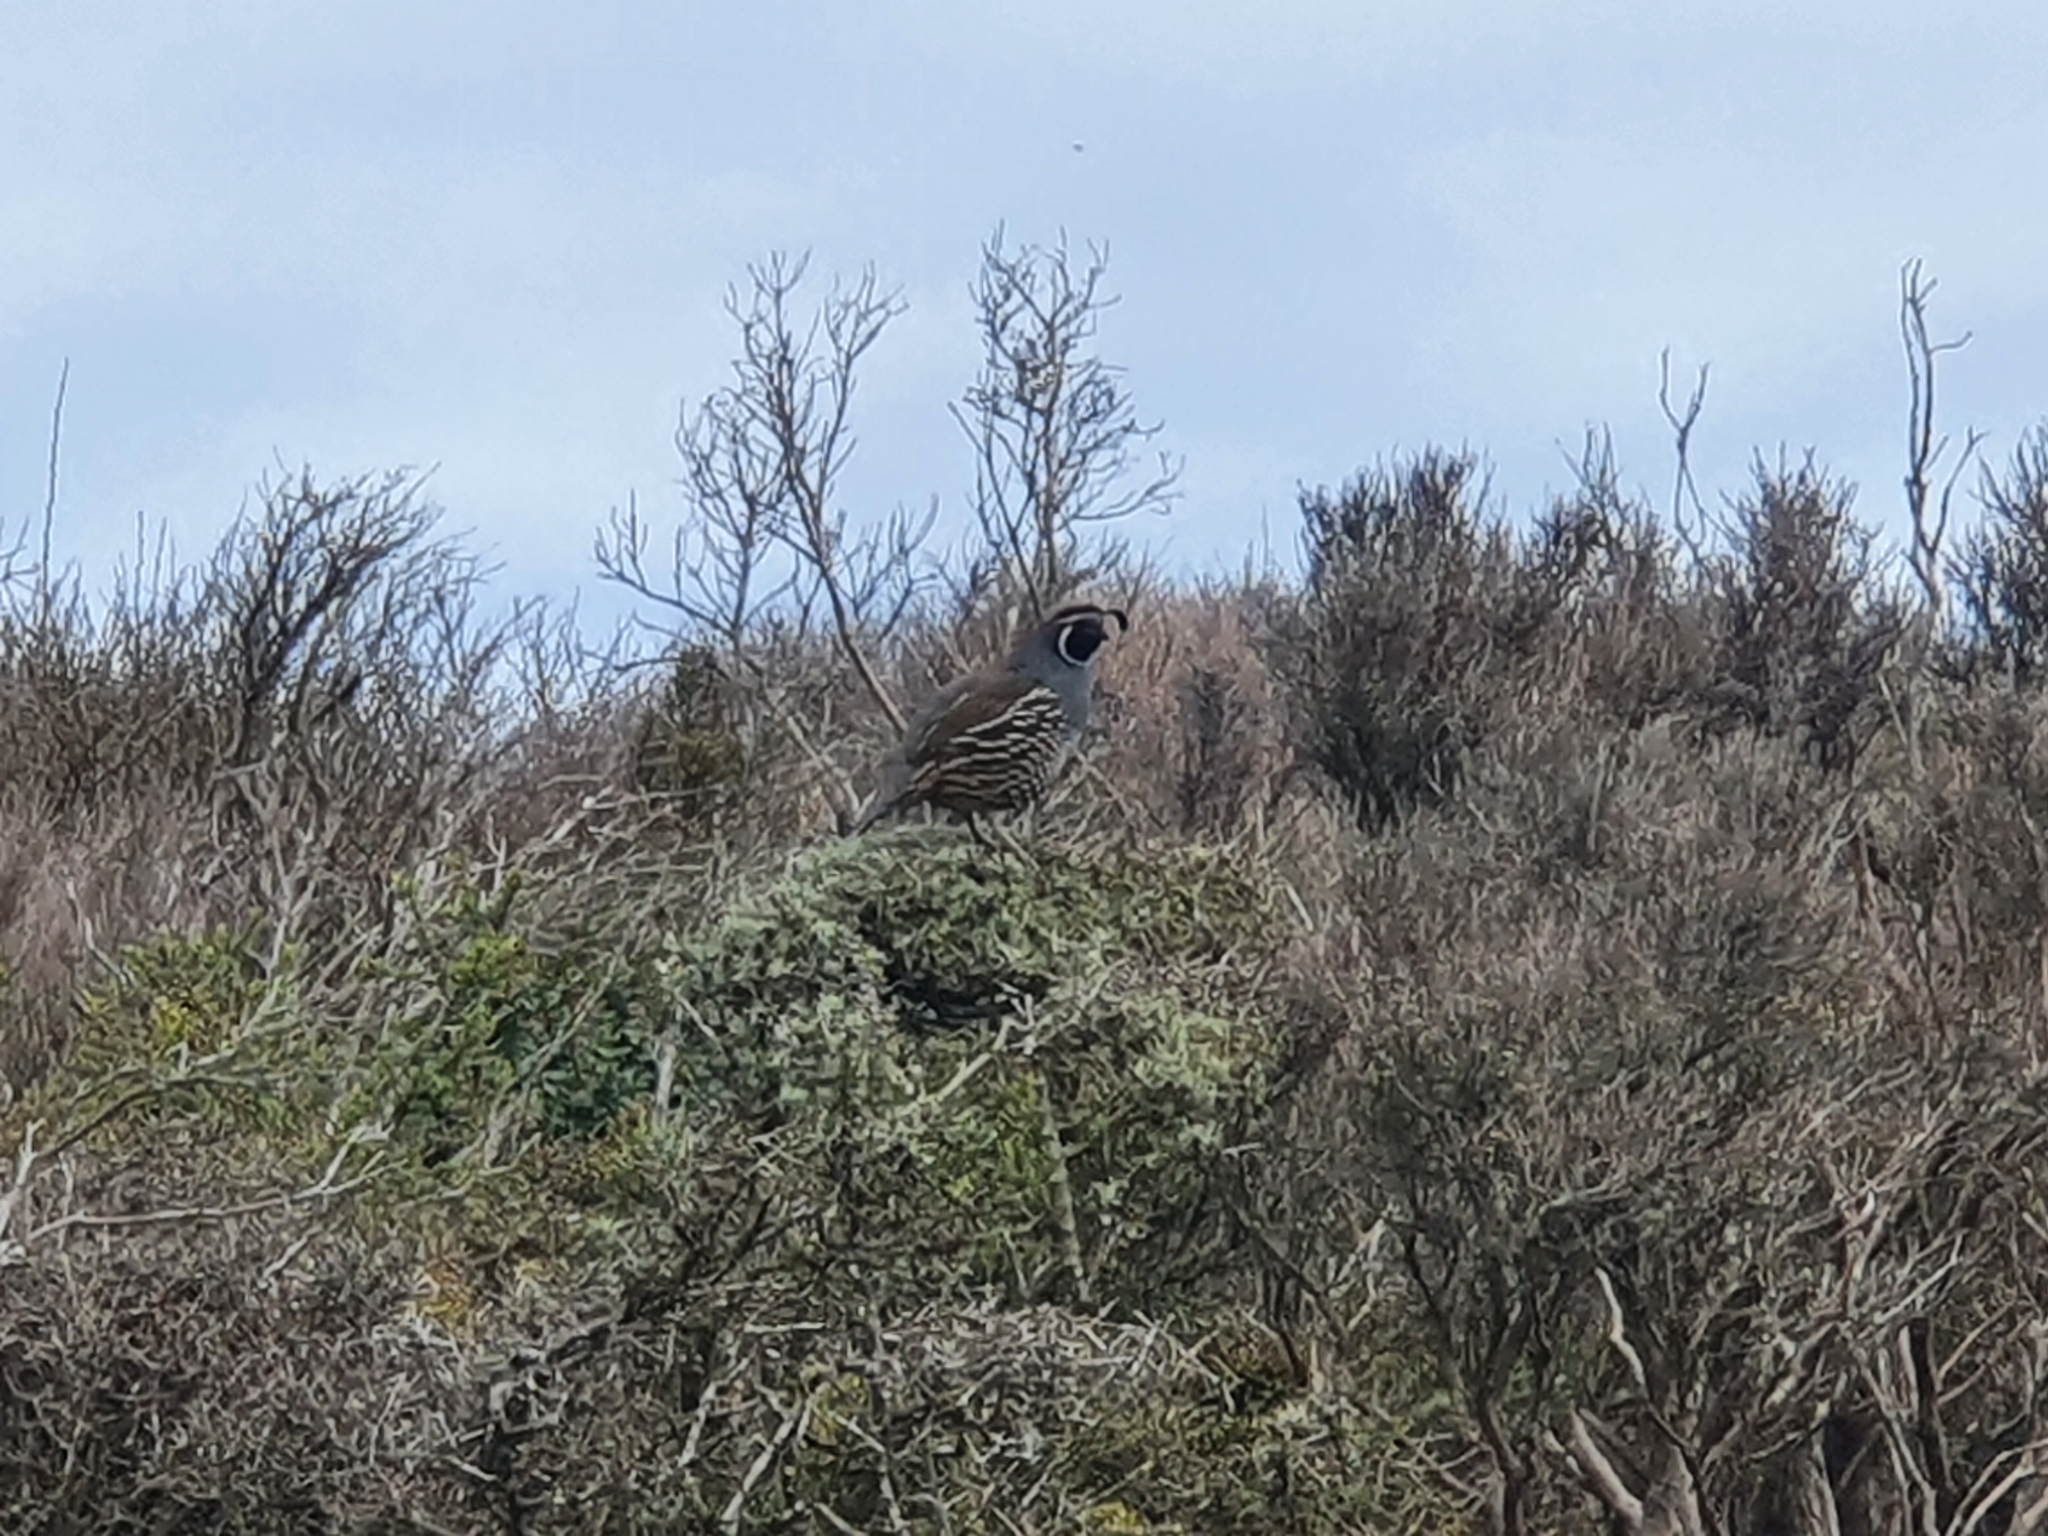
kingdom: Animalia
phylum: Chordata
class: Aves
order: Galliformes
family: Odontophoridae
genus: Callipepla
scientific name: Callipepla californica
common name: California quail
